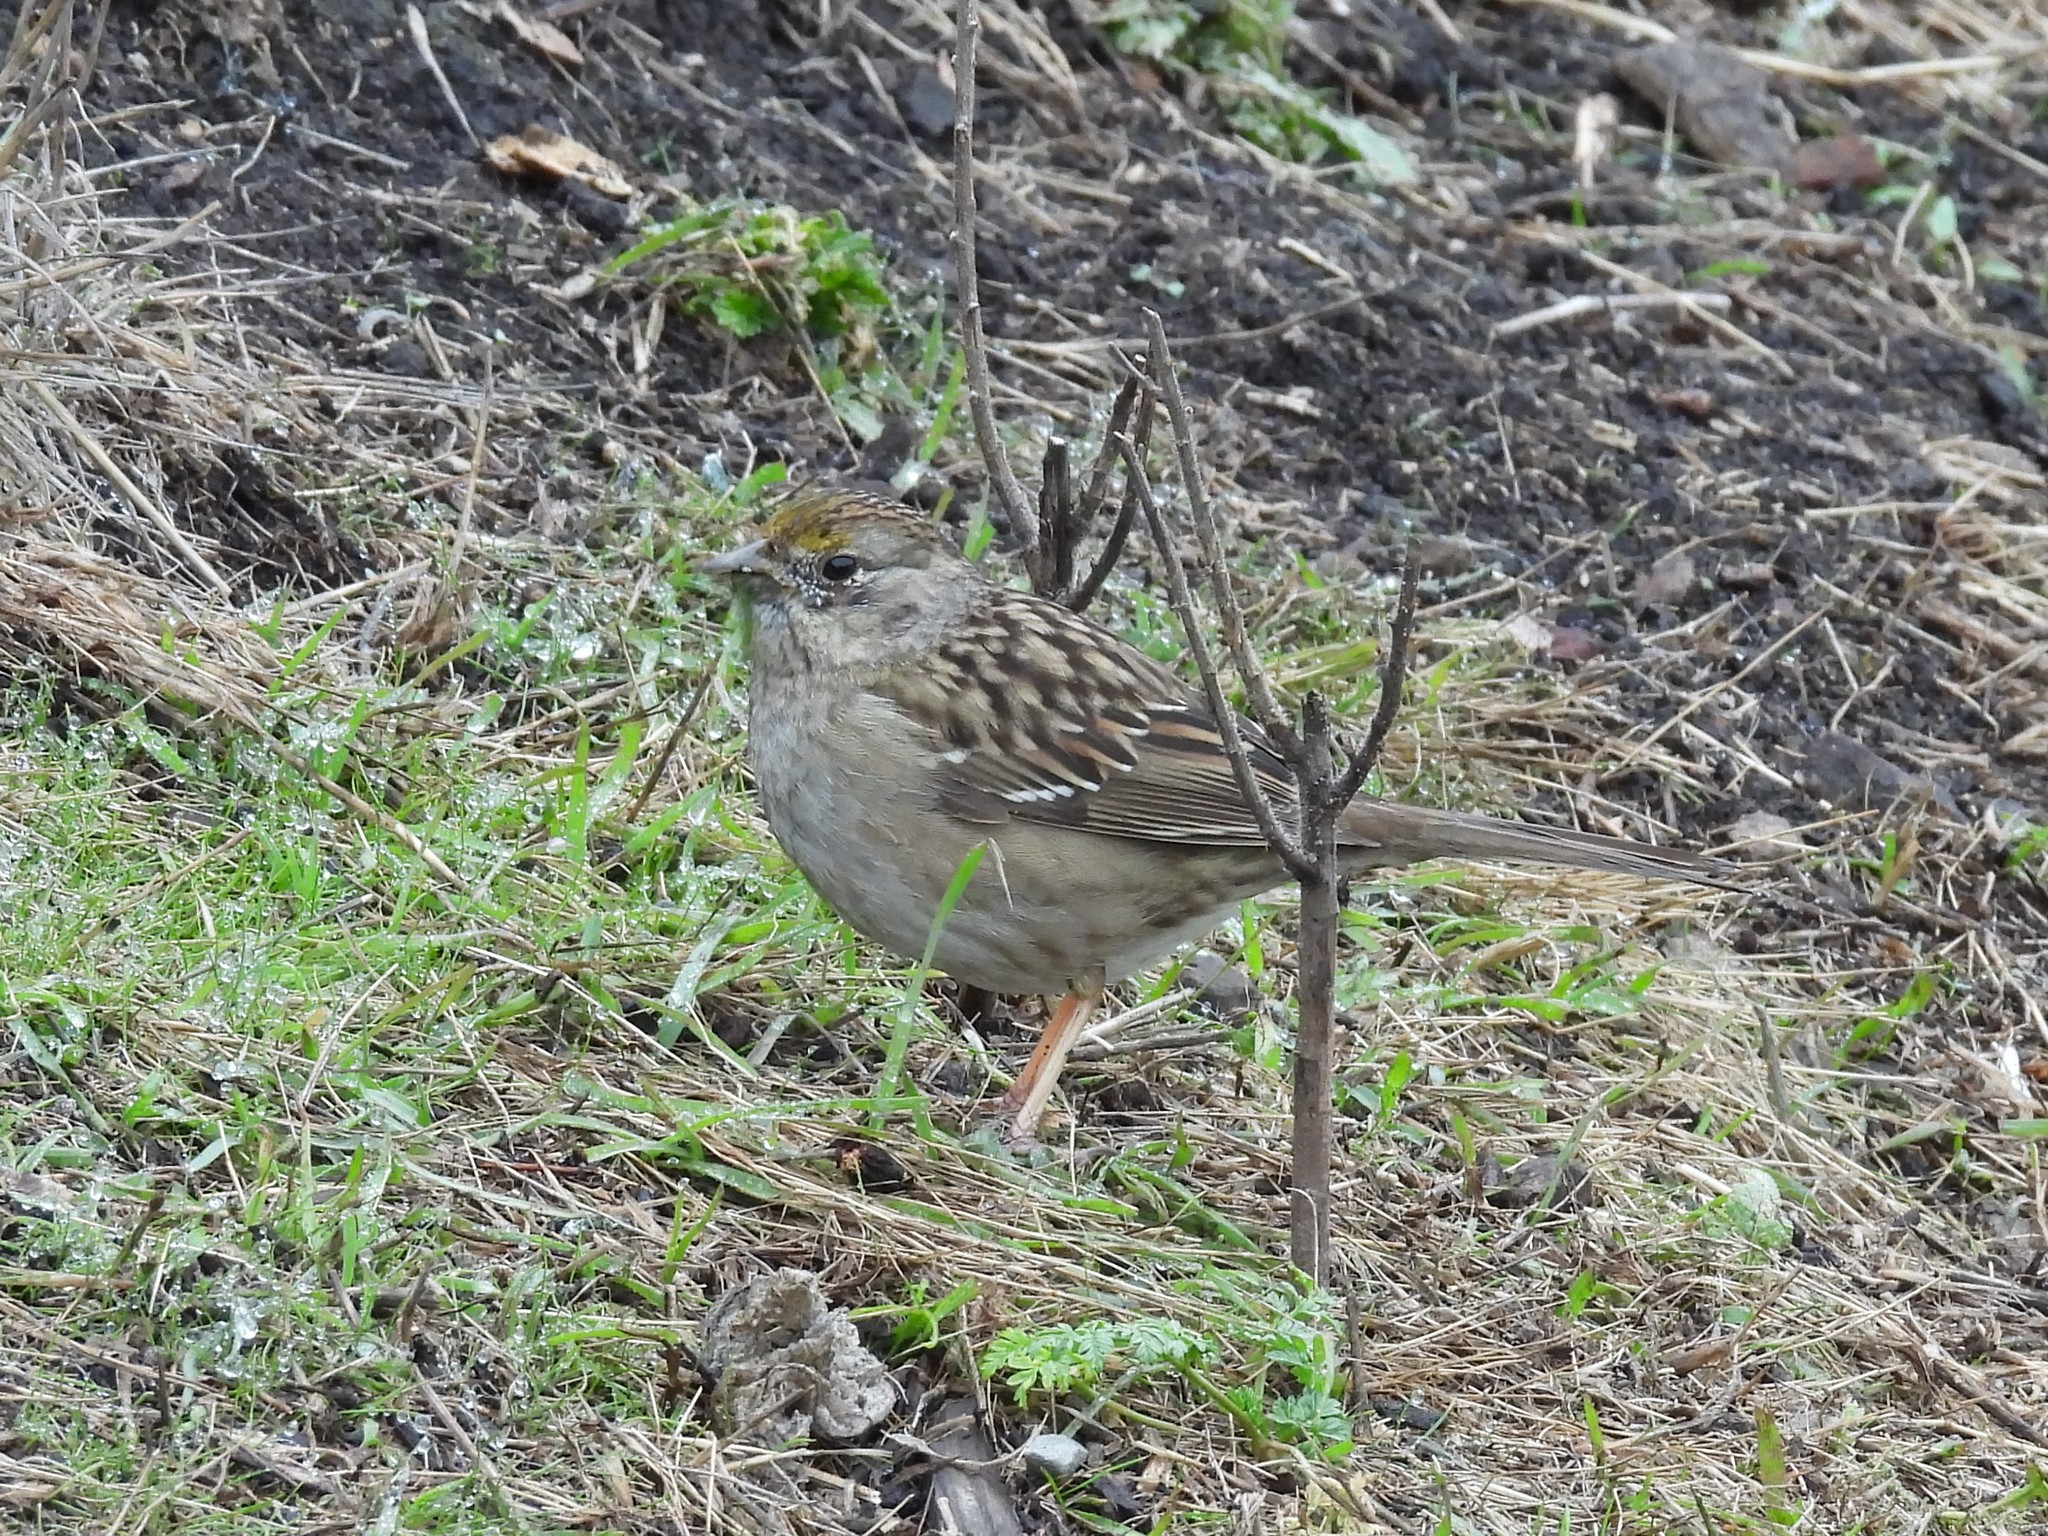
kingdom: Animalia
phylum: Chordata
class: Aves
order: Passeriformes
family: Passerellidae
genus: Zonotrichia
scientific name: Zonotrichia atricapilla
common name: Golden-crowned sparrow
